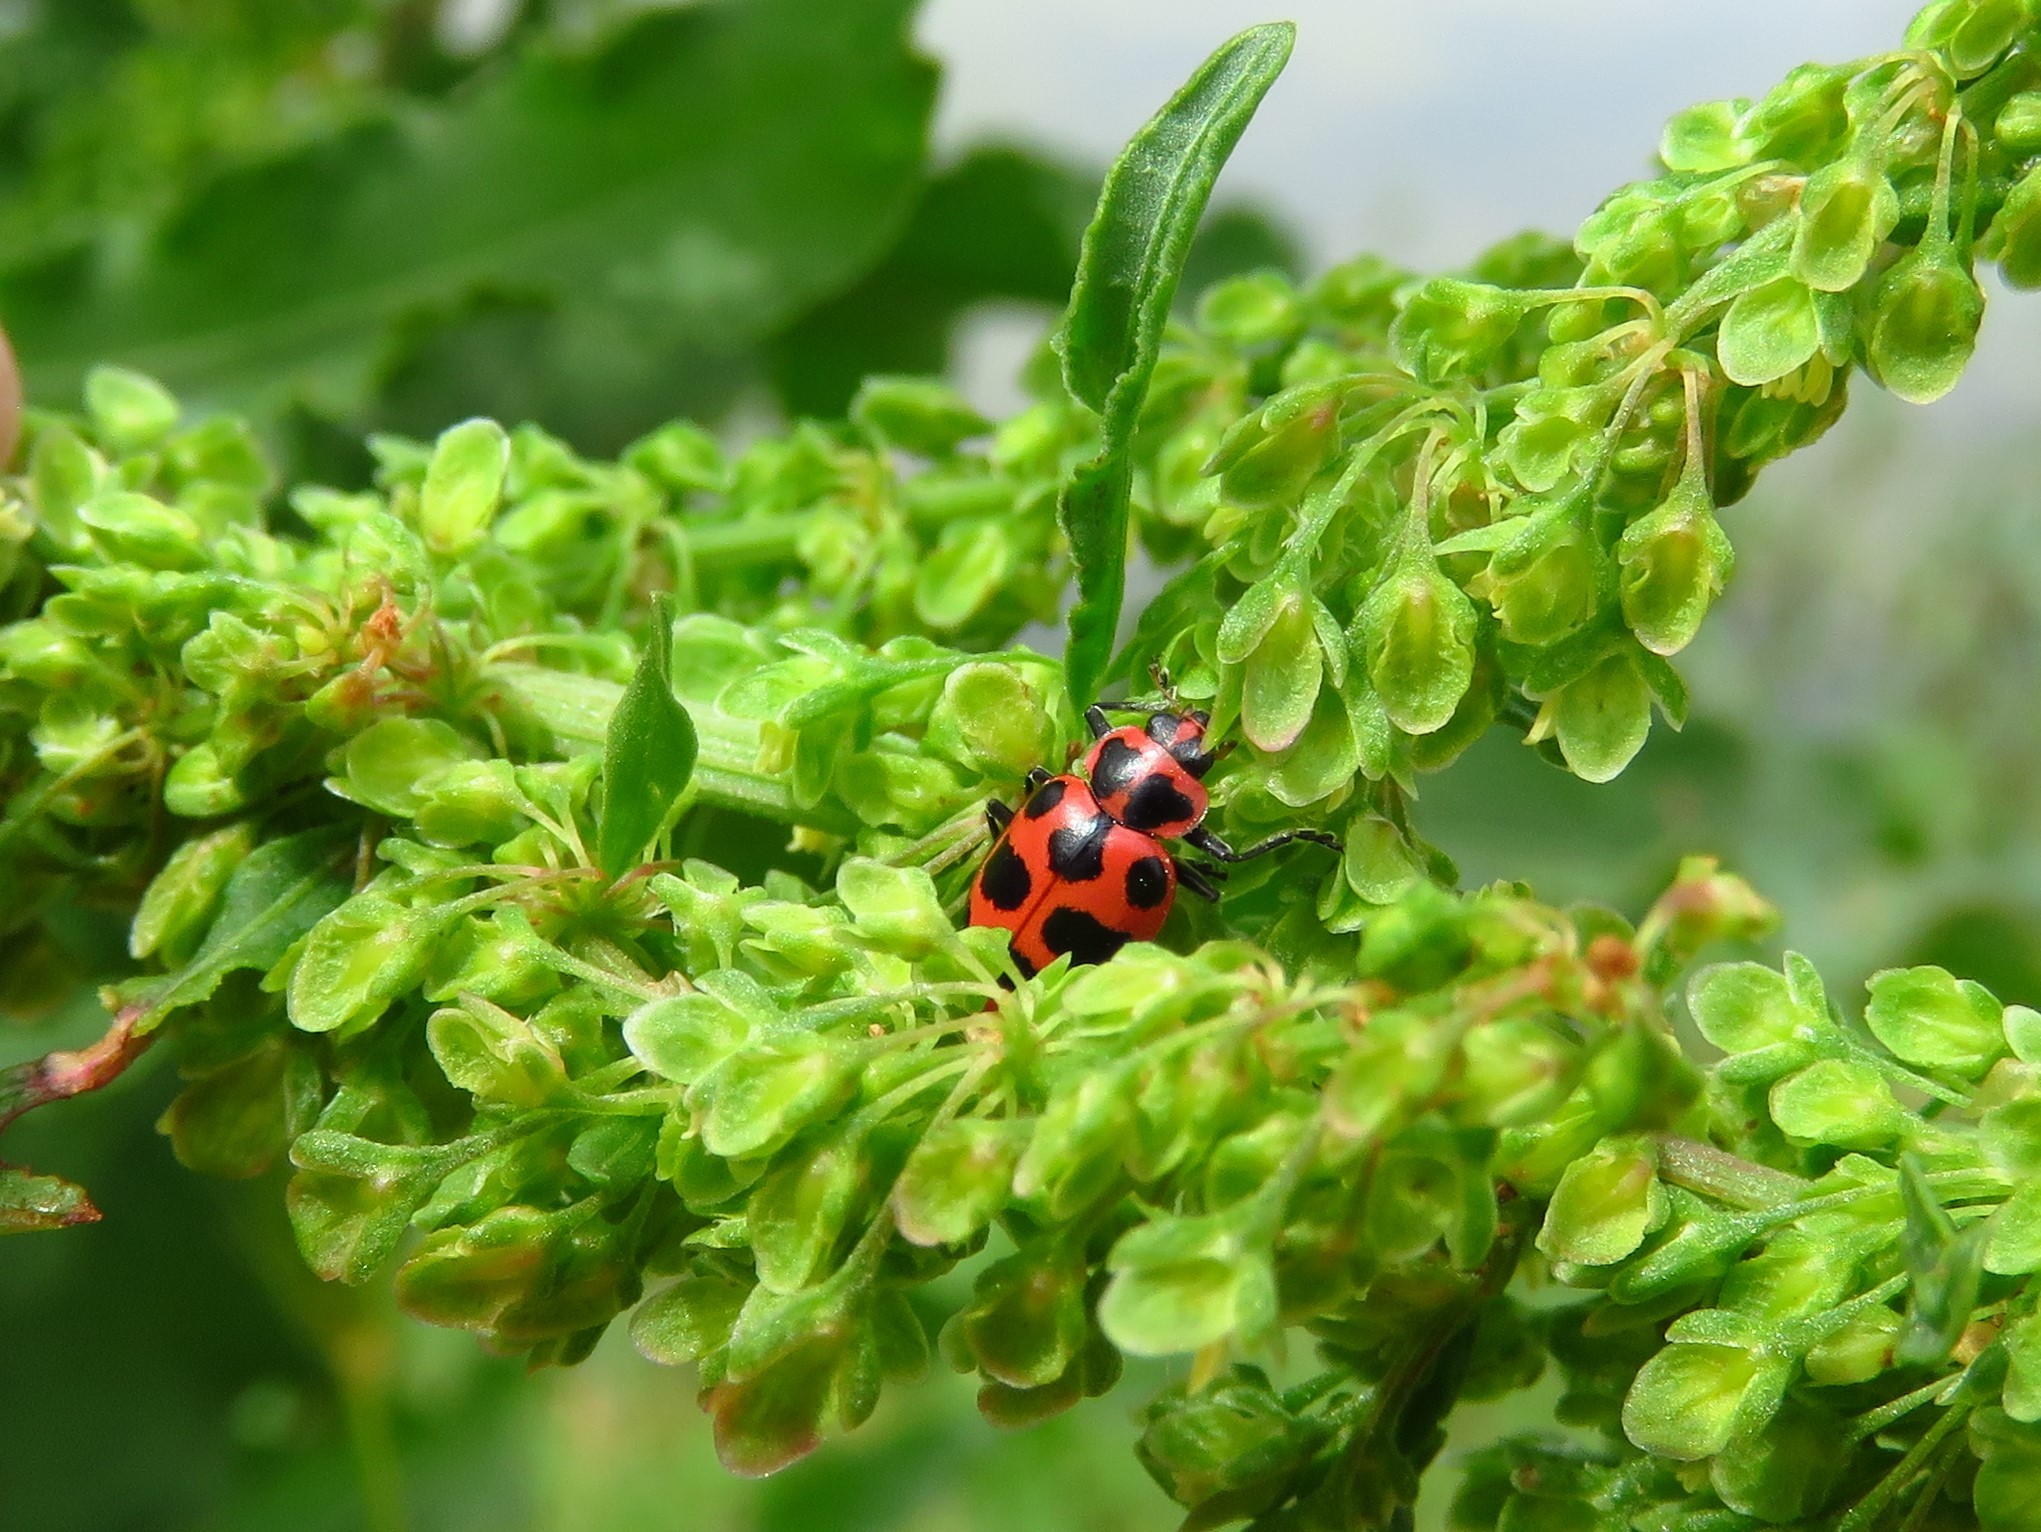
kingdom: Animalia
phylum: Arthropoda
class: Insecta
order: Coleoptera
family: Coccinellidae
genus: Coleomegilla
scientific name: Coleomegilla maculata
